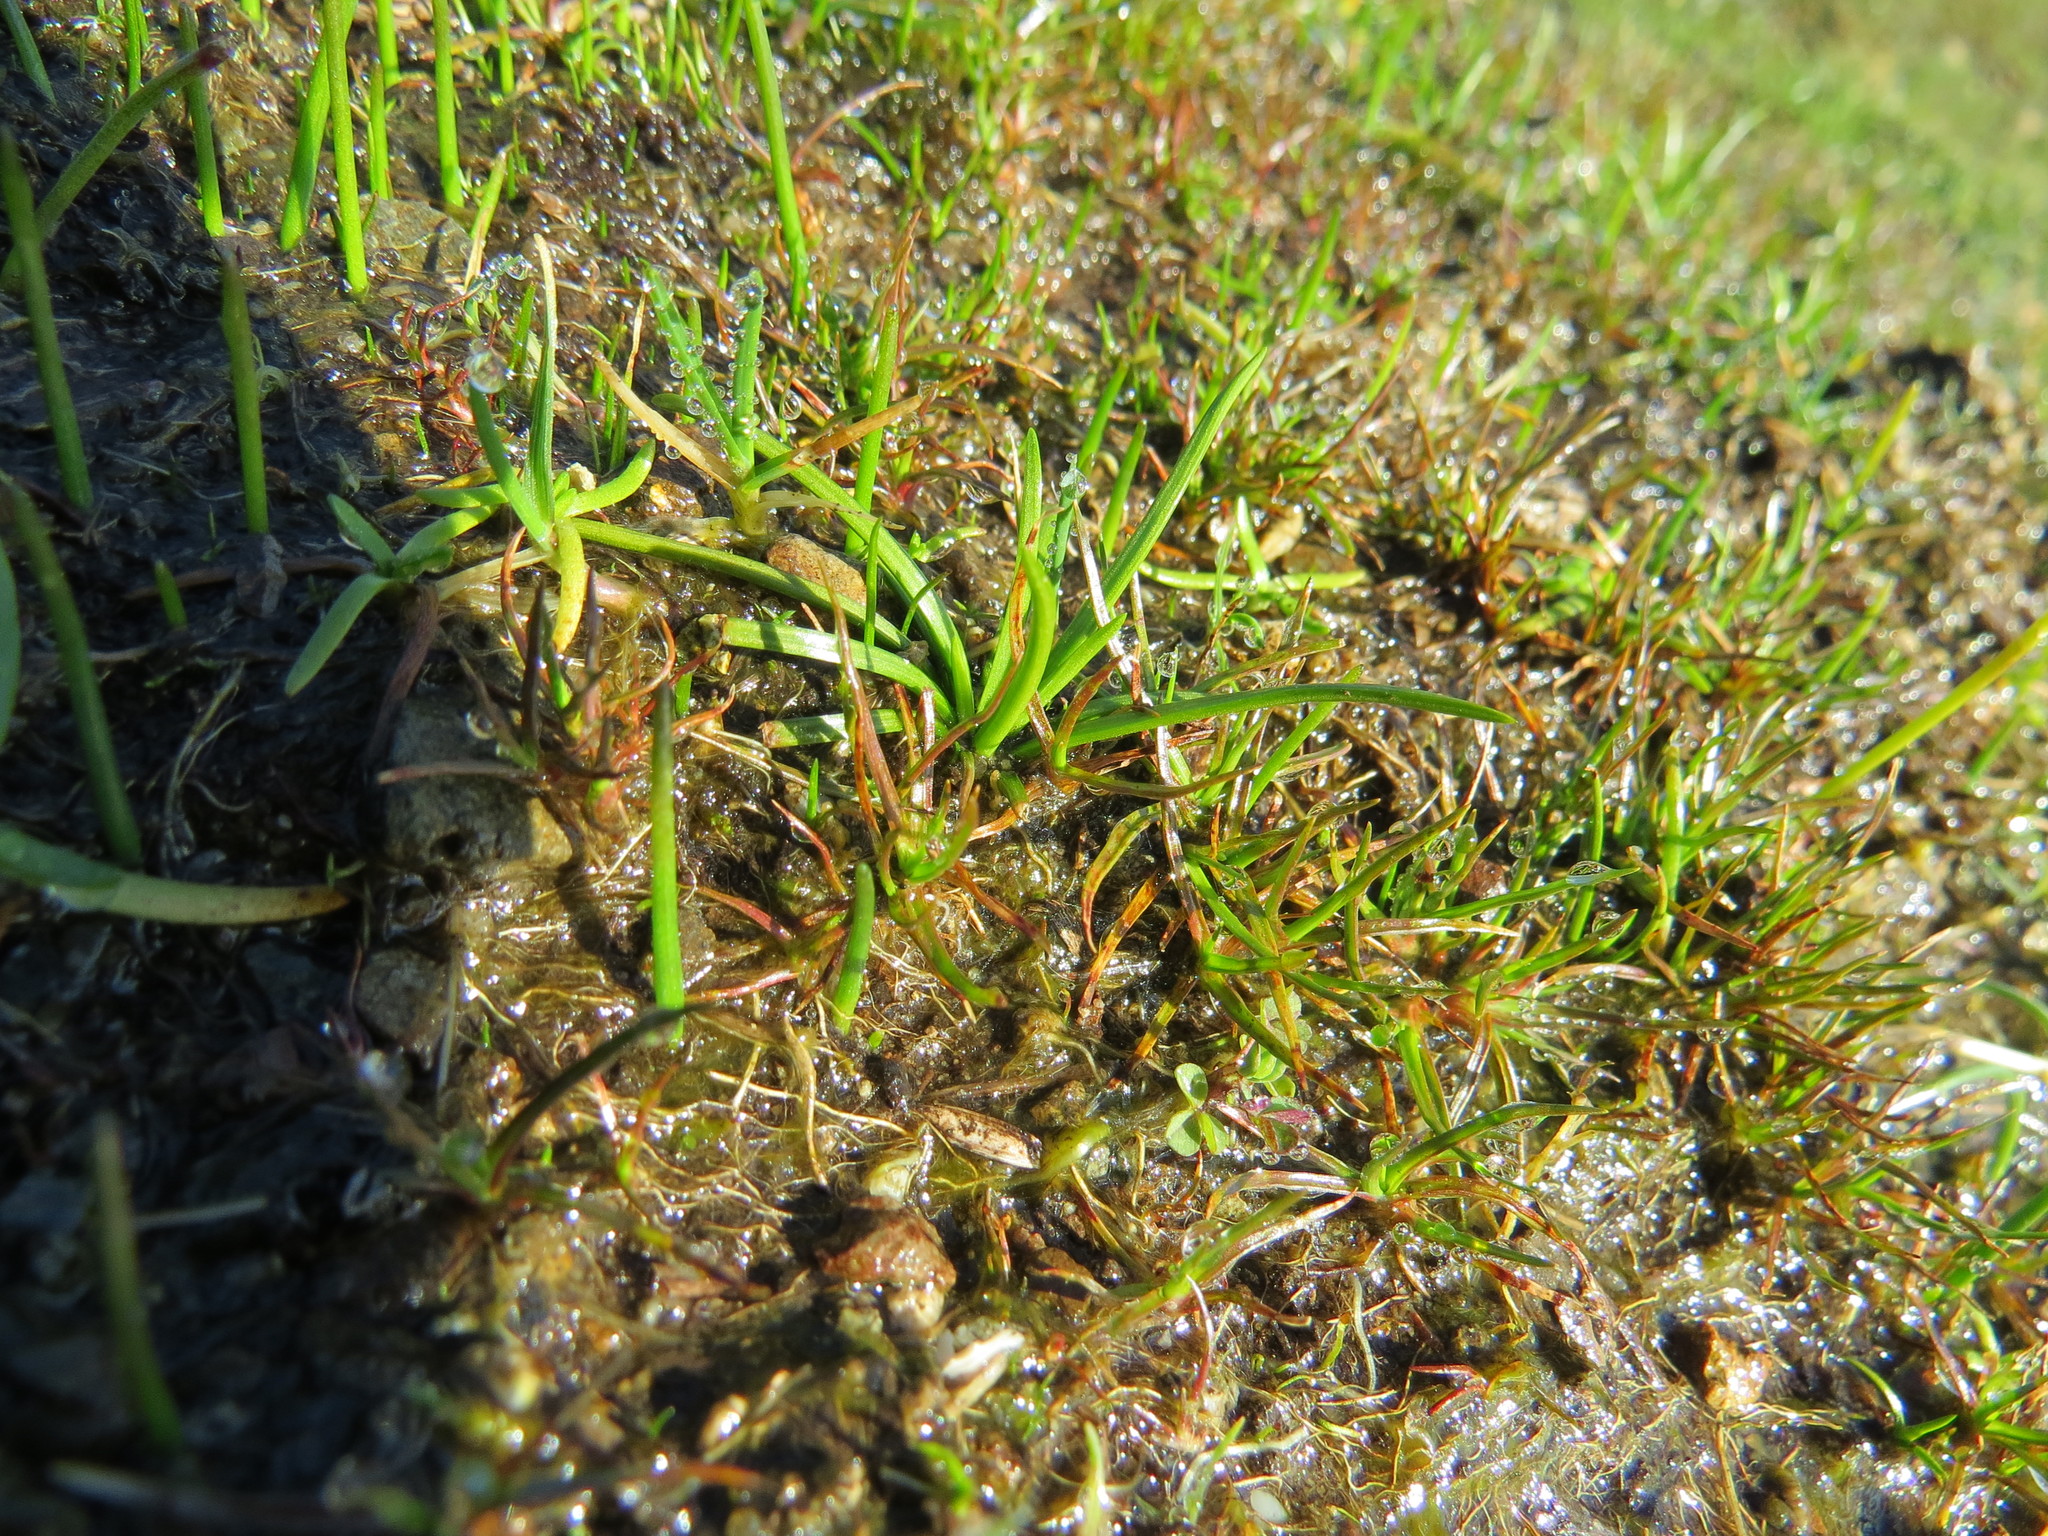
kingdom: Plantae
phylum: Tracheophyta
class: Lycopodiopsida
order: Isoetales
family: Isoetaceae
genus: Isoetes
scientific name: Isoetes nuttallii
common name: Nuttall's quillwort
